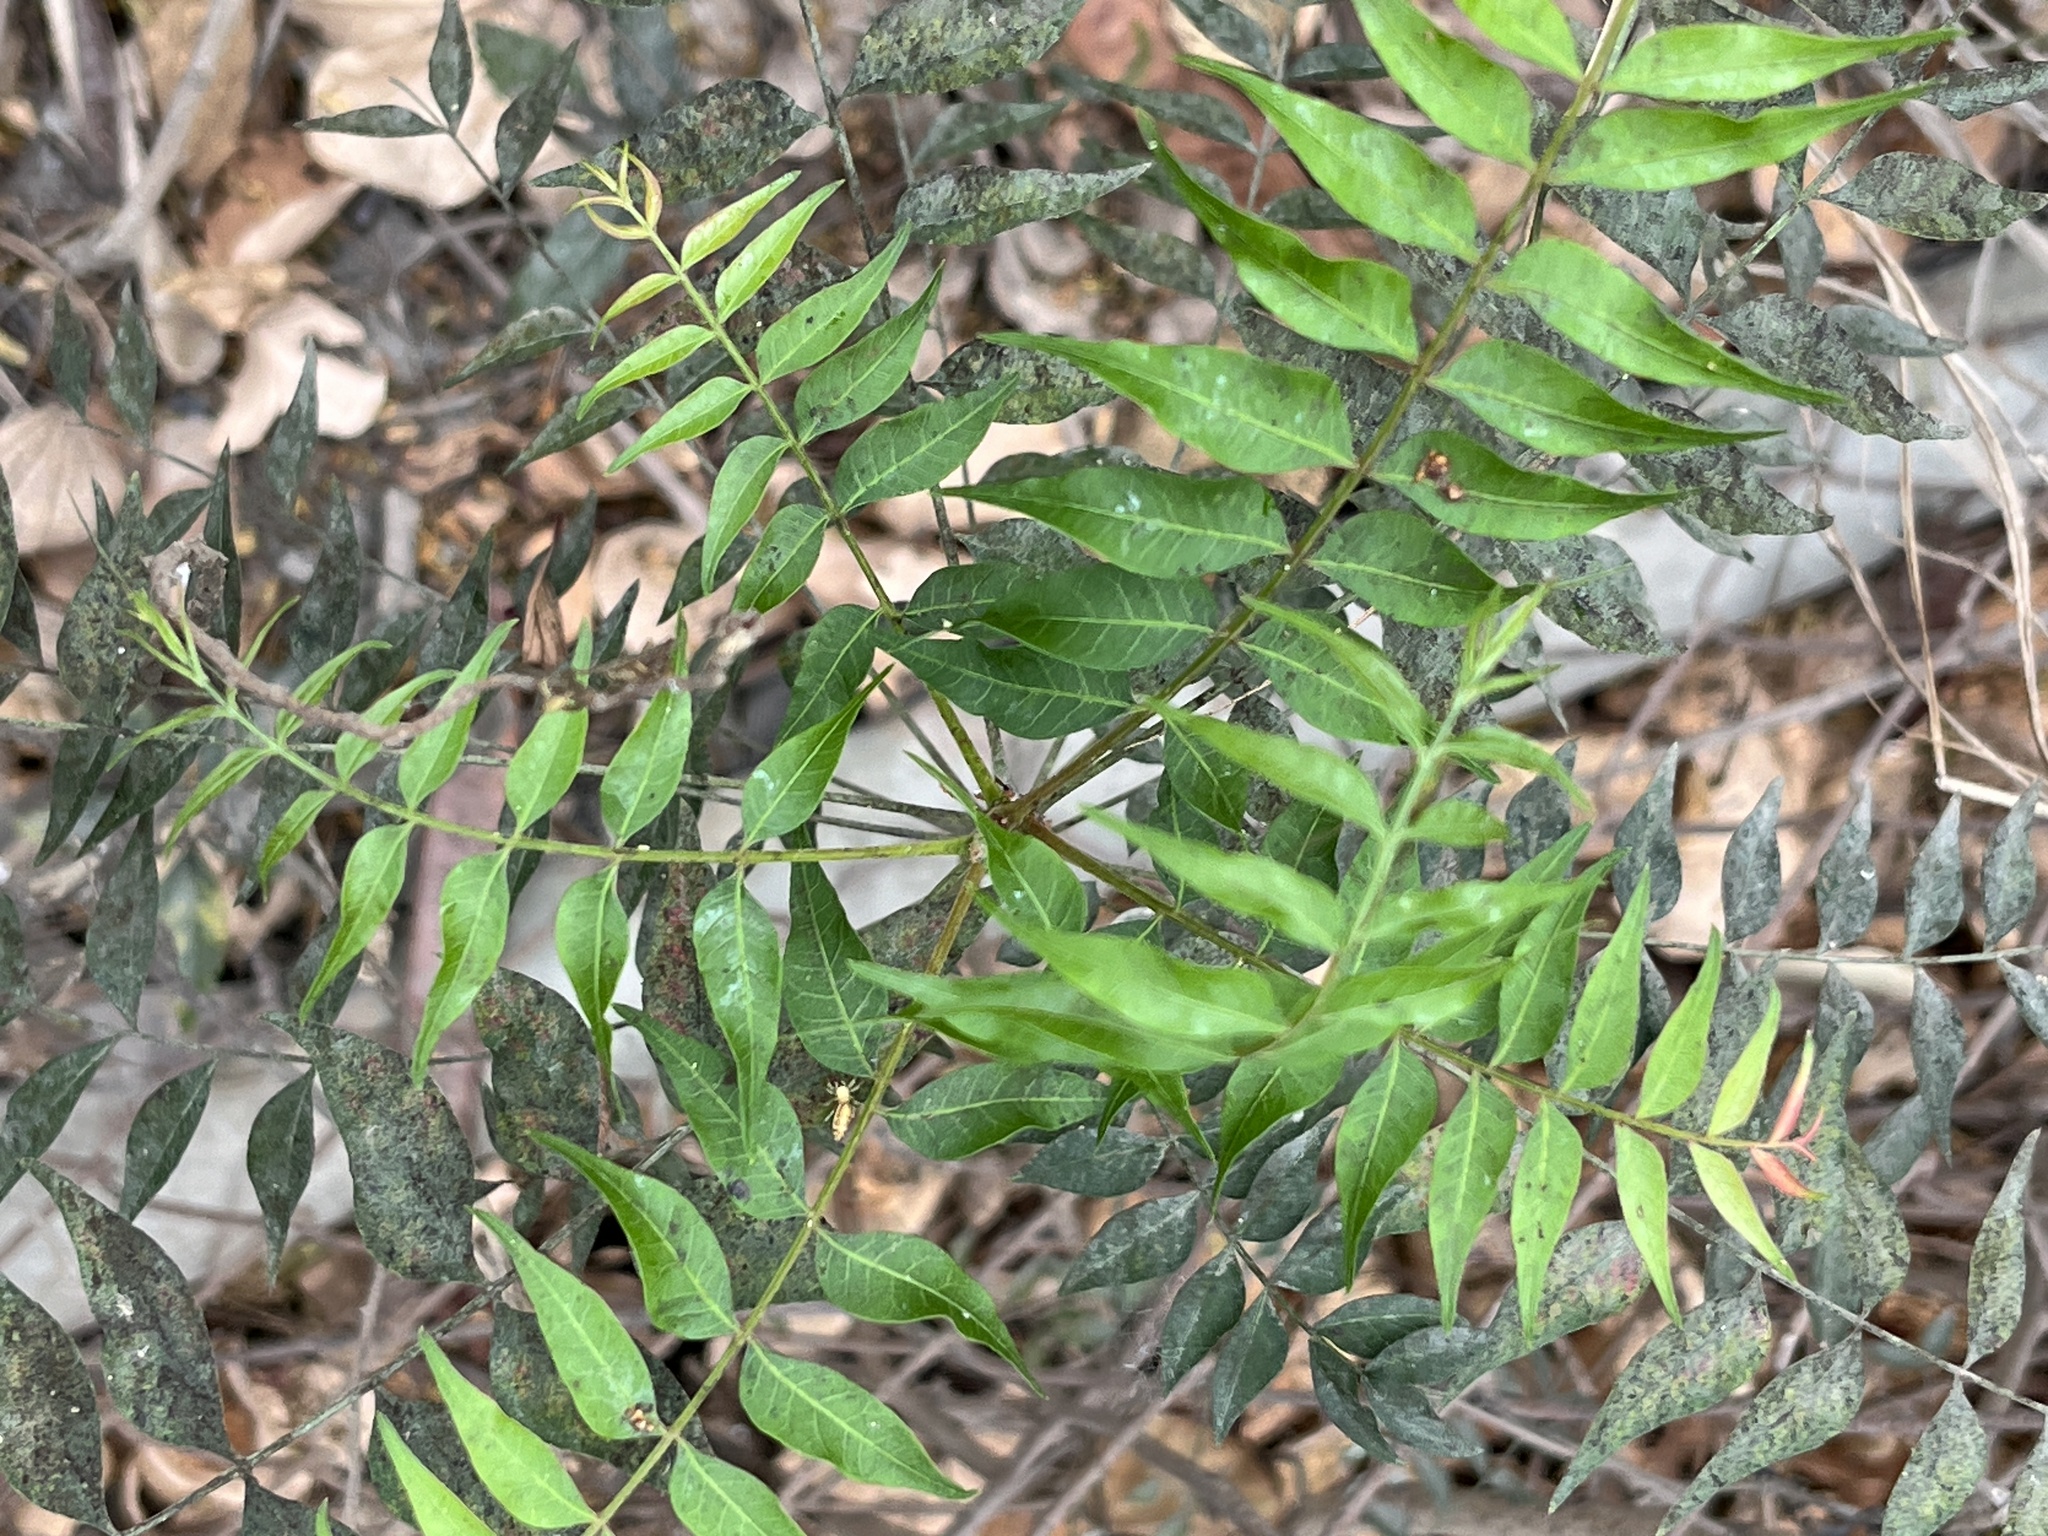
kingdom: Plantae
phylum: Tracheophyta
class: Magnoliopsida
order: Sapindales
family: Anacardiaceae
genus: Pistacia
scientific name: Pistacia chinensis
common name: Chinese pistache
